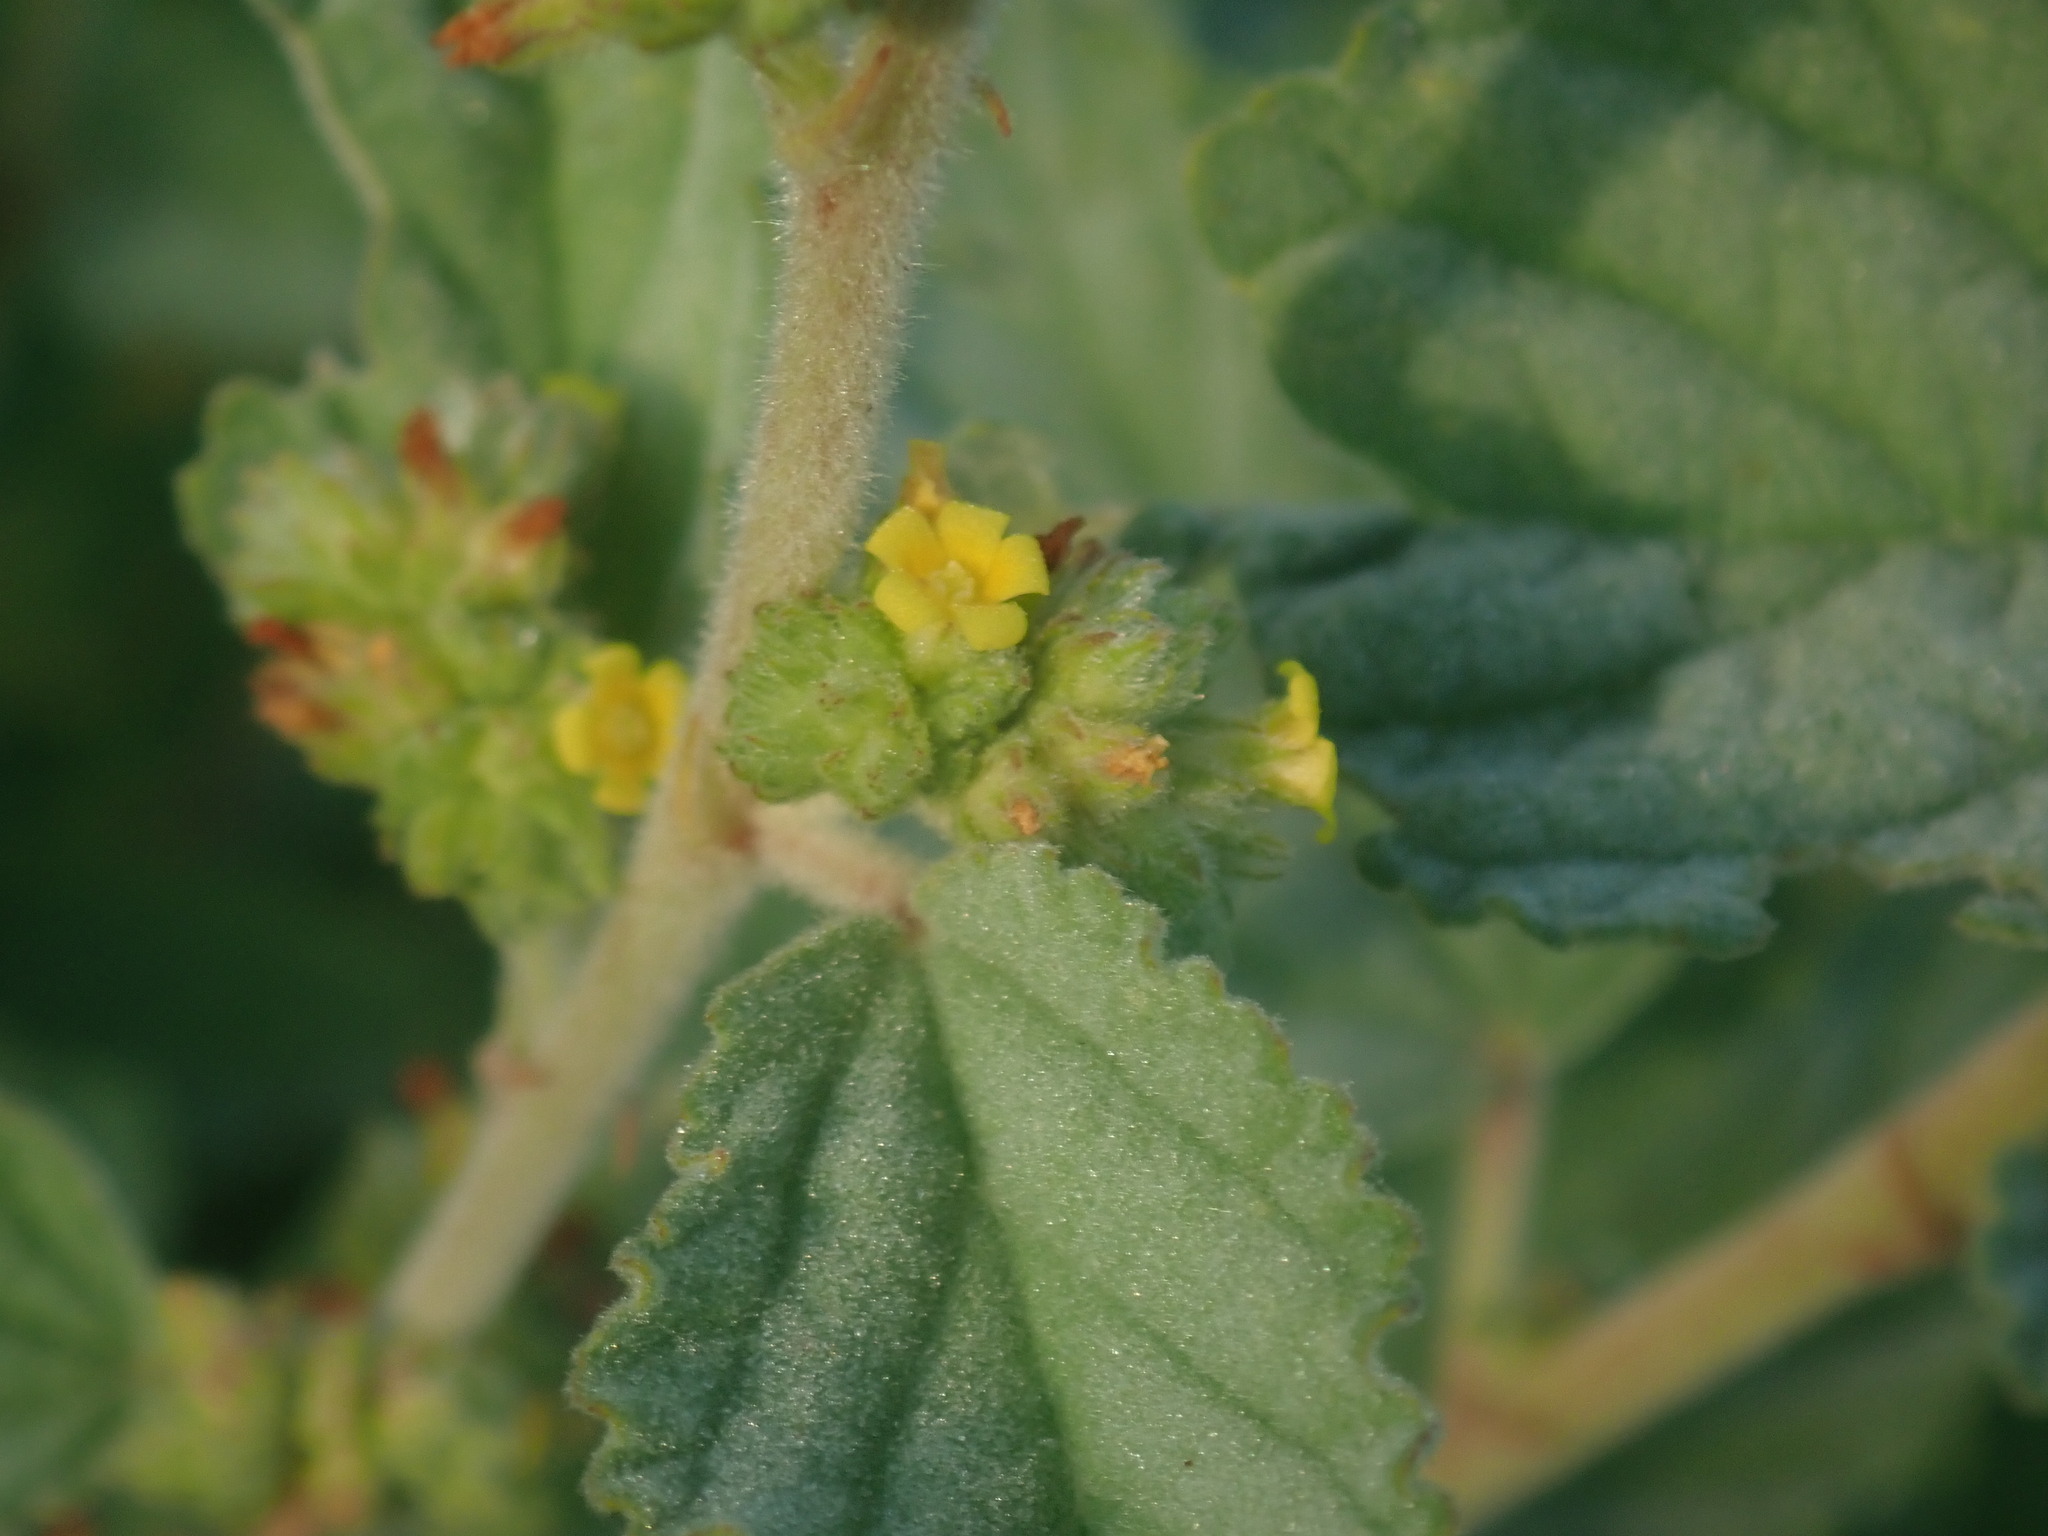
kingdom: Plantae
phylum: Tracheophyta
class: Magnoliopsida
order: Malvales
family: Malvaceae
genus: Waltheria
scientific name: Waltheria indica
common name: Leather-coat
